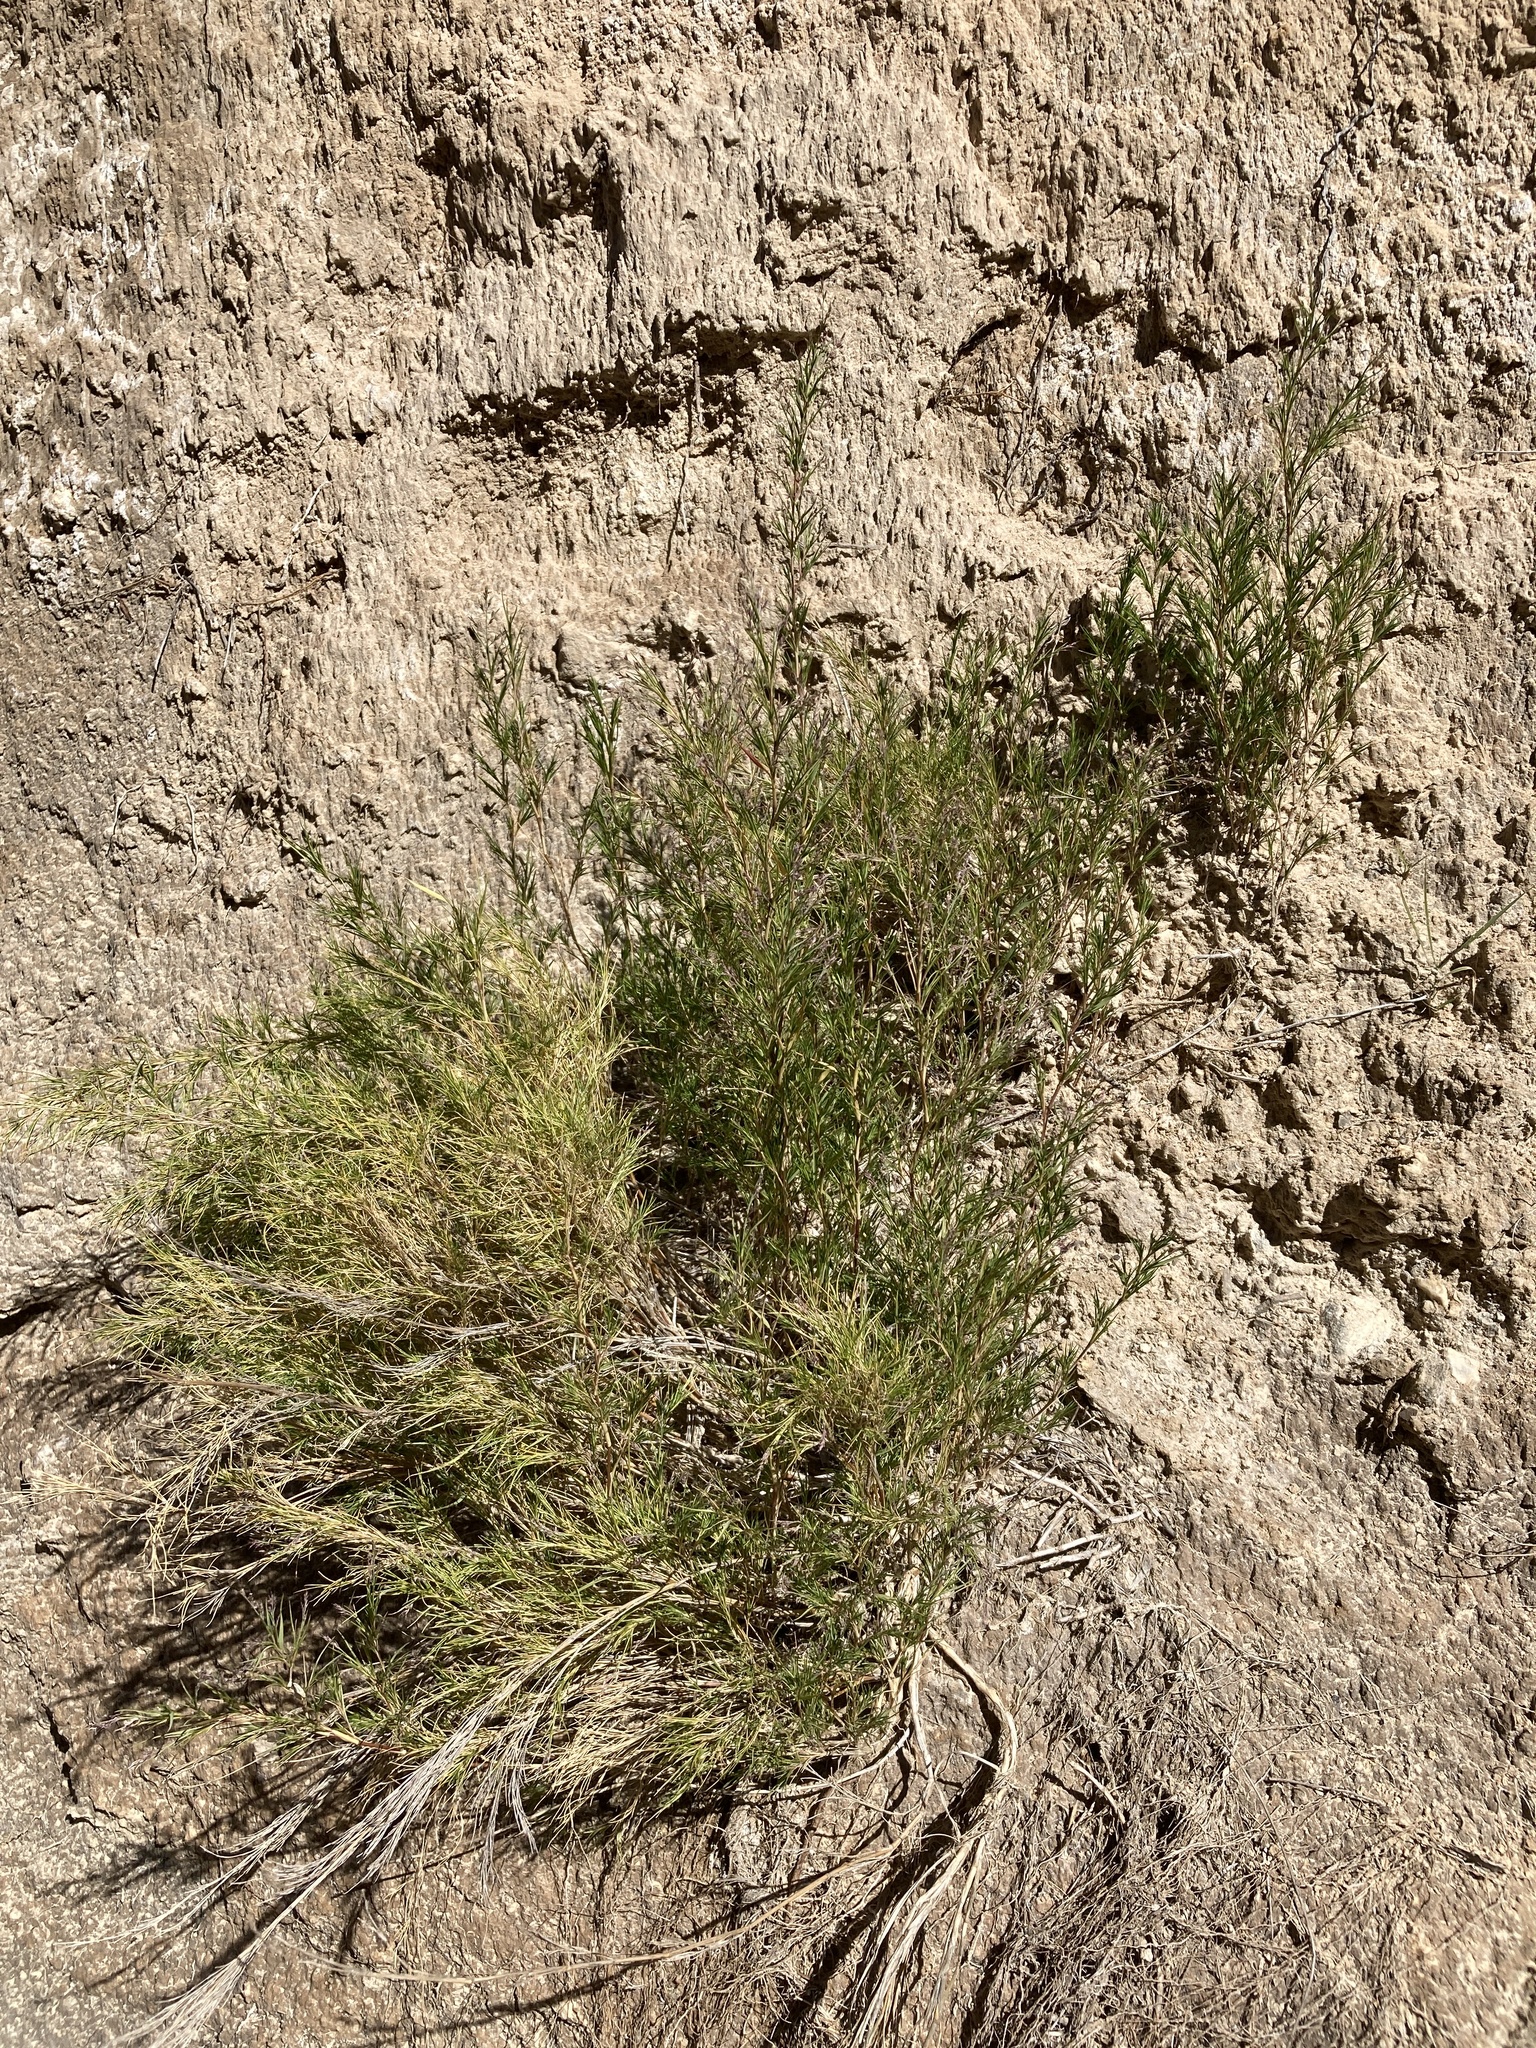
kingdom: Plantae
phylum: Tracheophyta
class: Liliopsida
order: Poales
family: Poaceae
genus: Muhlenbergia
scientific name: Muhlenbergia villiflora
